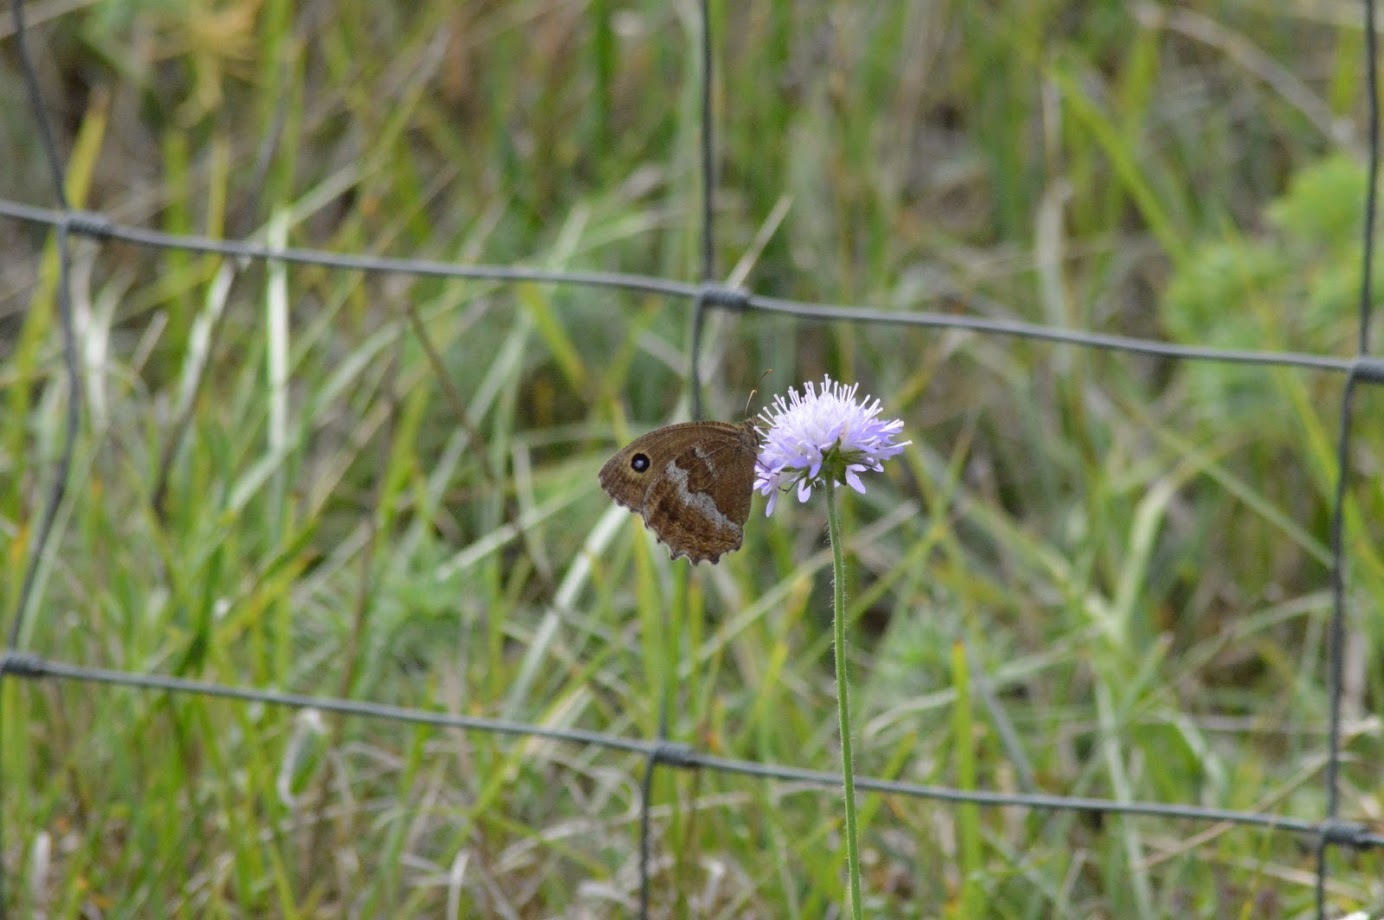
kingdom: Animalia
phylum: Arthropoda
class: Insecta
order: Lepidoptera
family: Nymphalidae
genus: Minois
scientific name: Minois dryas
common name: Dryad
